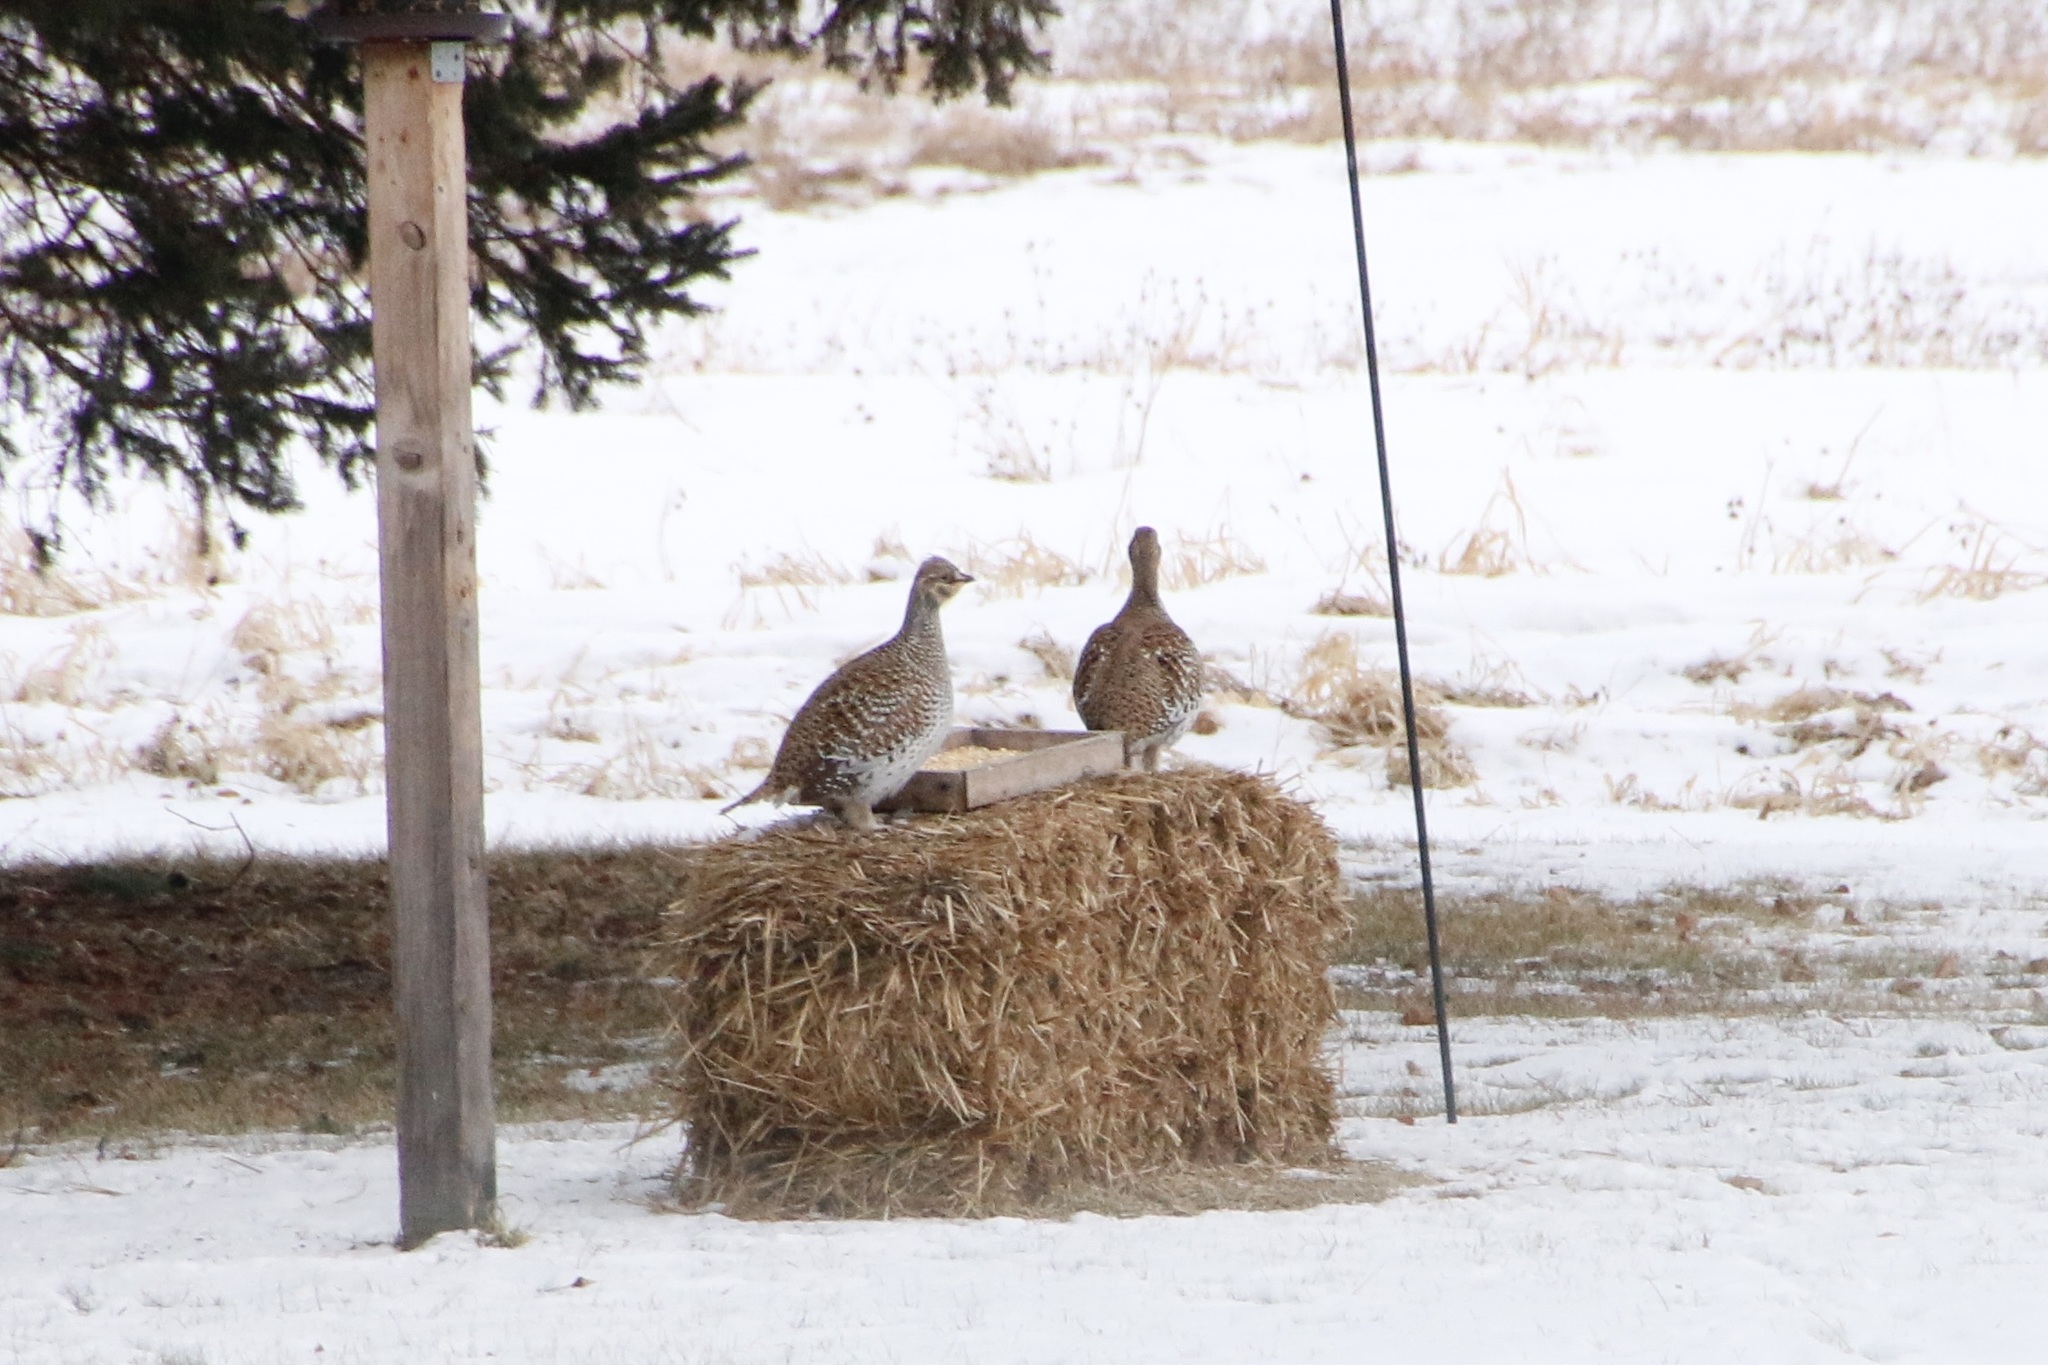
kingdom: Animalia
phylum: Chordata
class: Aves
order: Galliformes
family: Phasianidae
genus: Tympanuchus
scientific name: Tympanuchus phasianellus
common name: Sharp-tailed grouse
